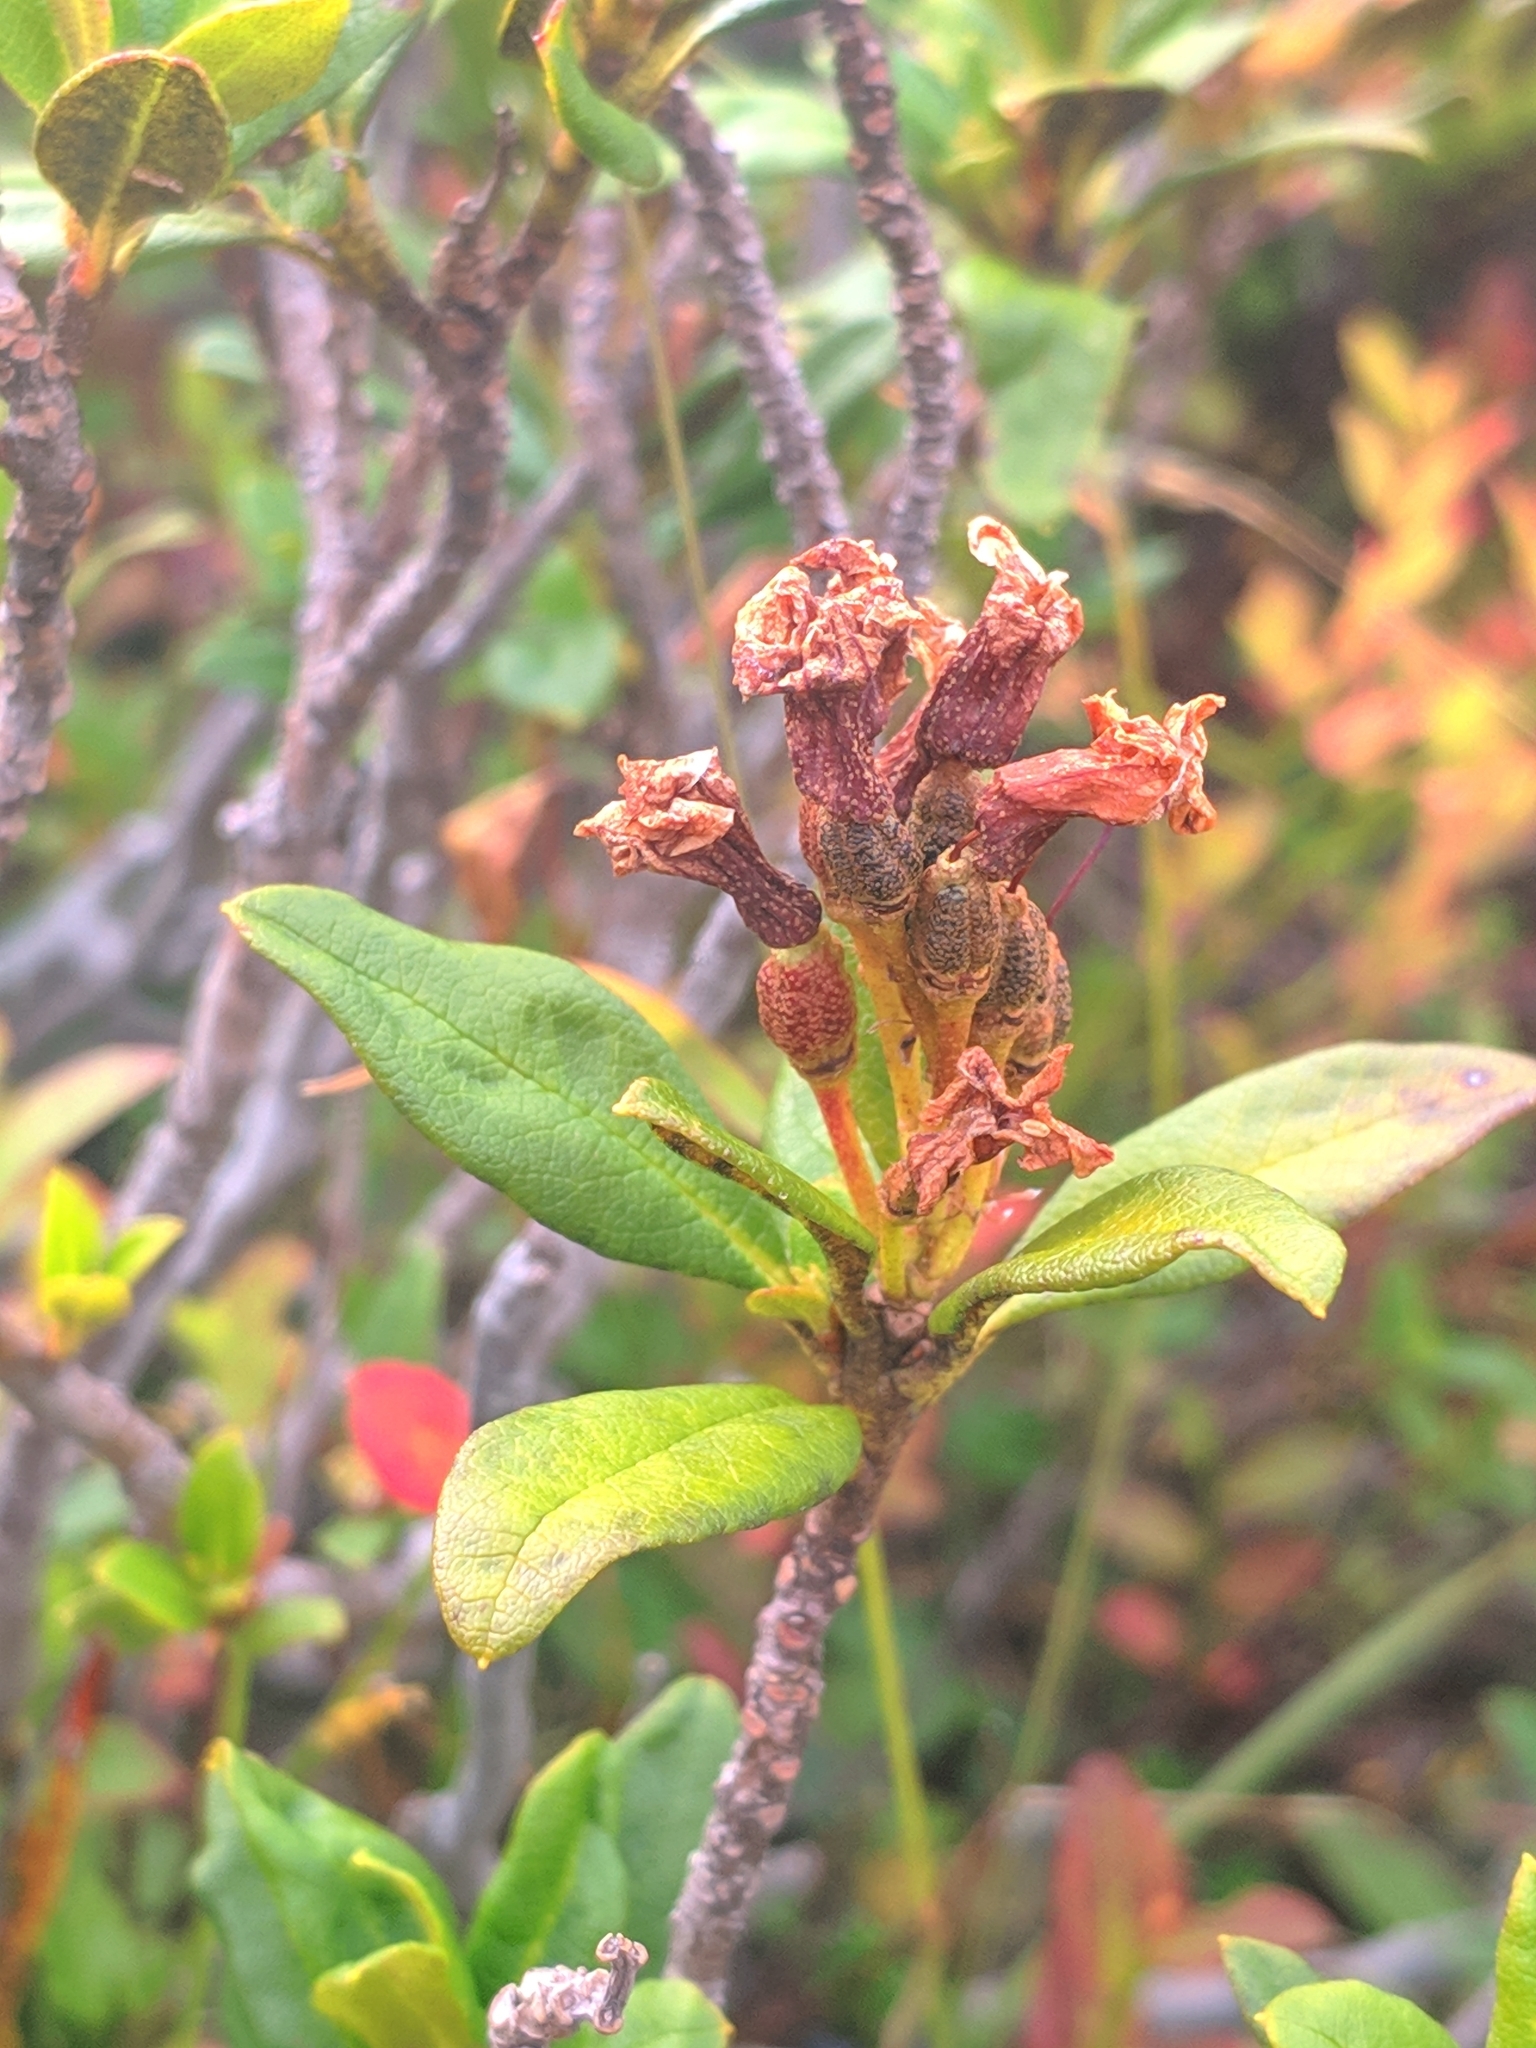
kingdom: Plantae
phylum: Tracheophyta
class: Magnoliopsida
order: Ericales
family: Ericaceae
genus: Rhododendron
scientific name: Rhododendron ferrugineum
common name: Alpenrose
